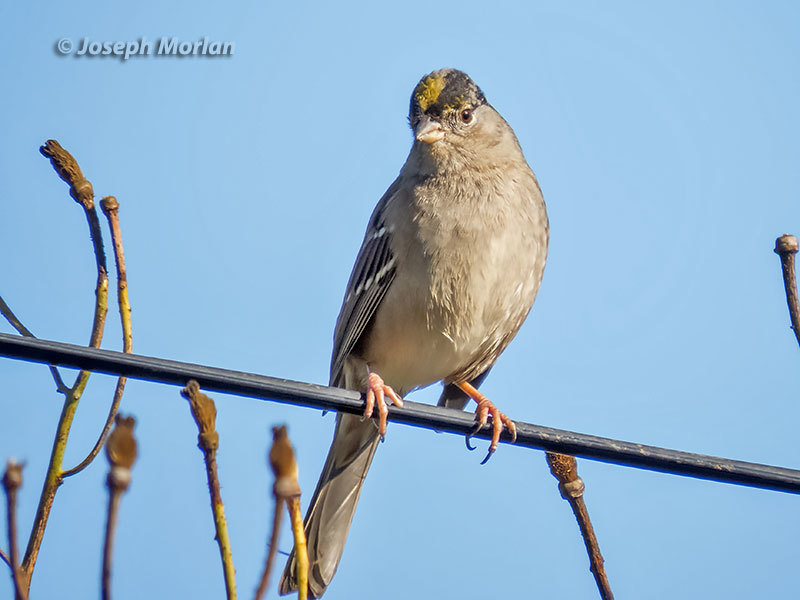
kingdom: Animalia
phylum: Chordata
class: Aves
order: Passeriformes
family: Passerellidae
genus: Zonotrichia
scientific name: Zonotrichia atricapilla
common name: Golden-crowned sparrow
